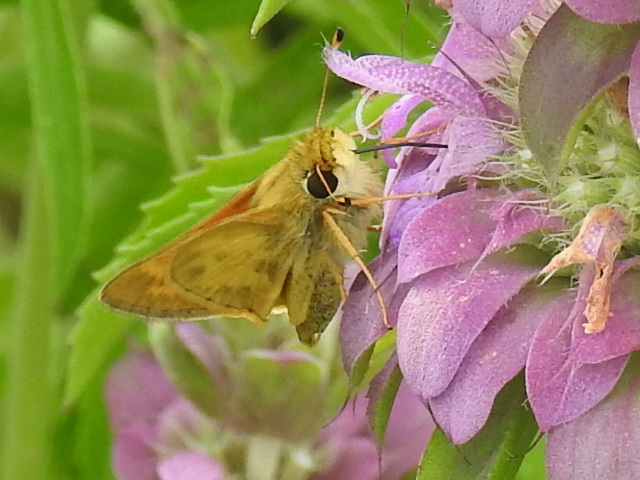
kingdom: Animalia
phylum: Arthropoda
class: Insecta
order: Lepidoptera
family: Hesperiidae
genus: Atalopedes
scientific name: Atalopedes
